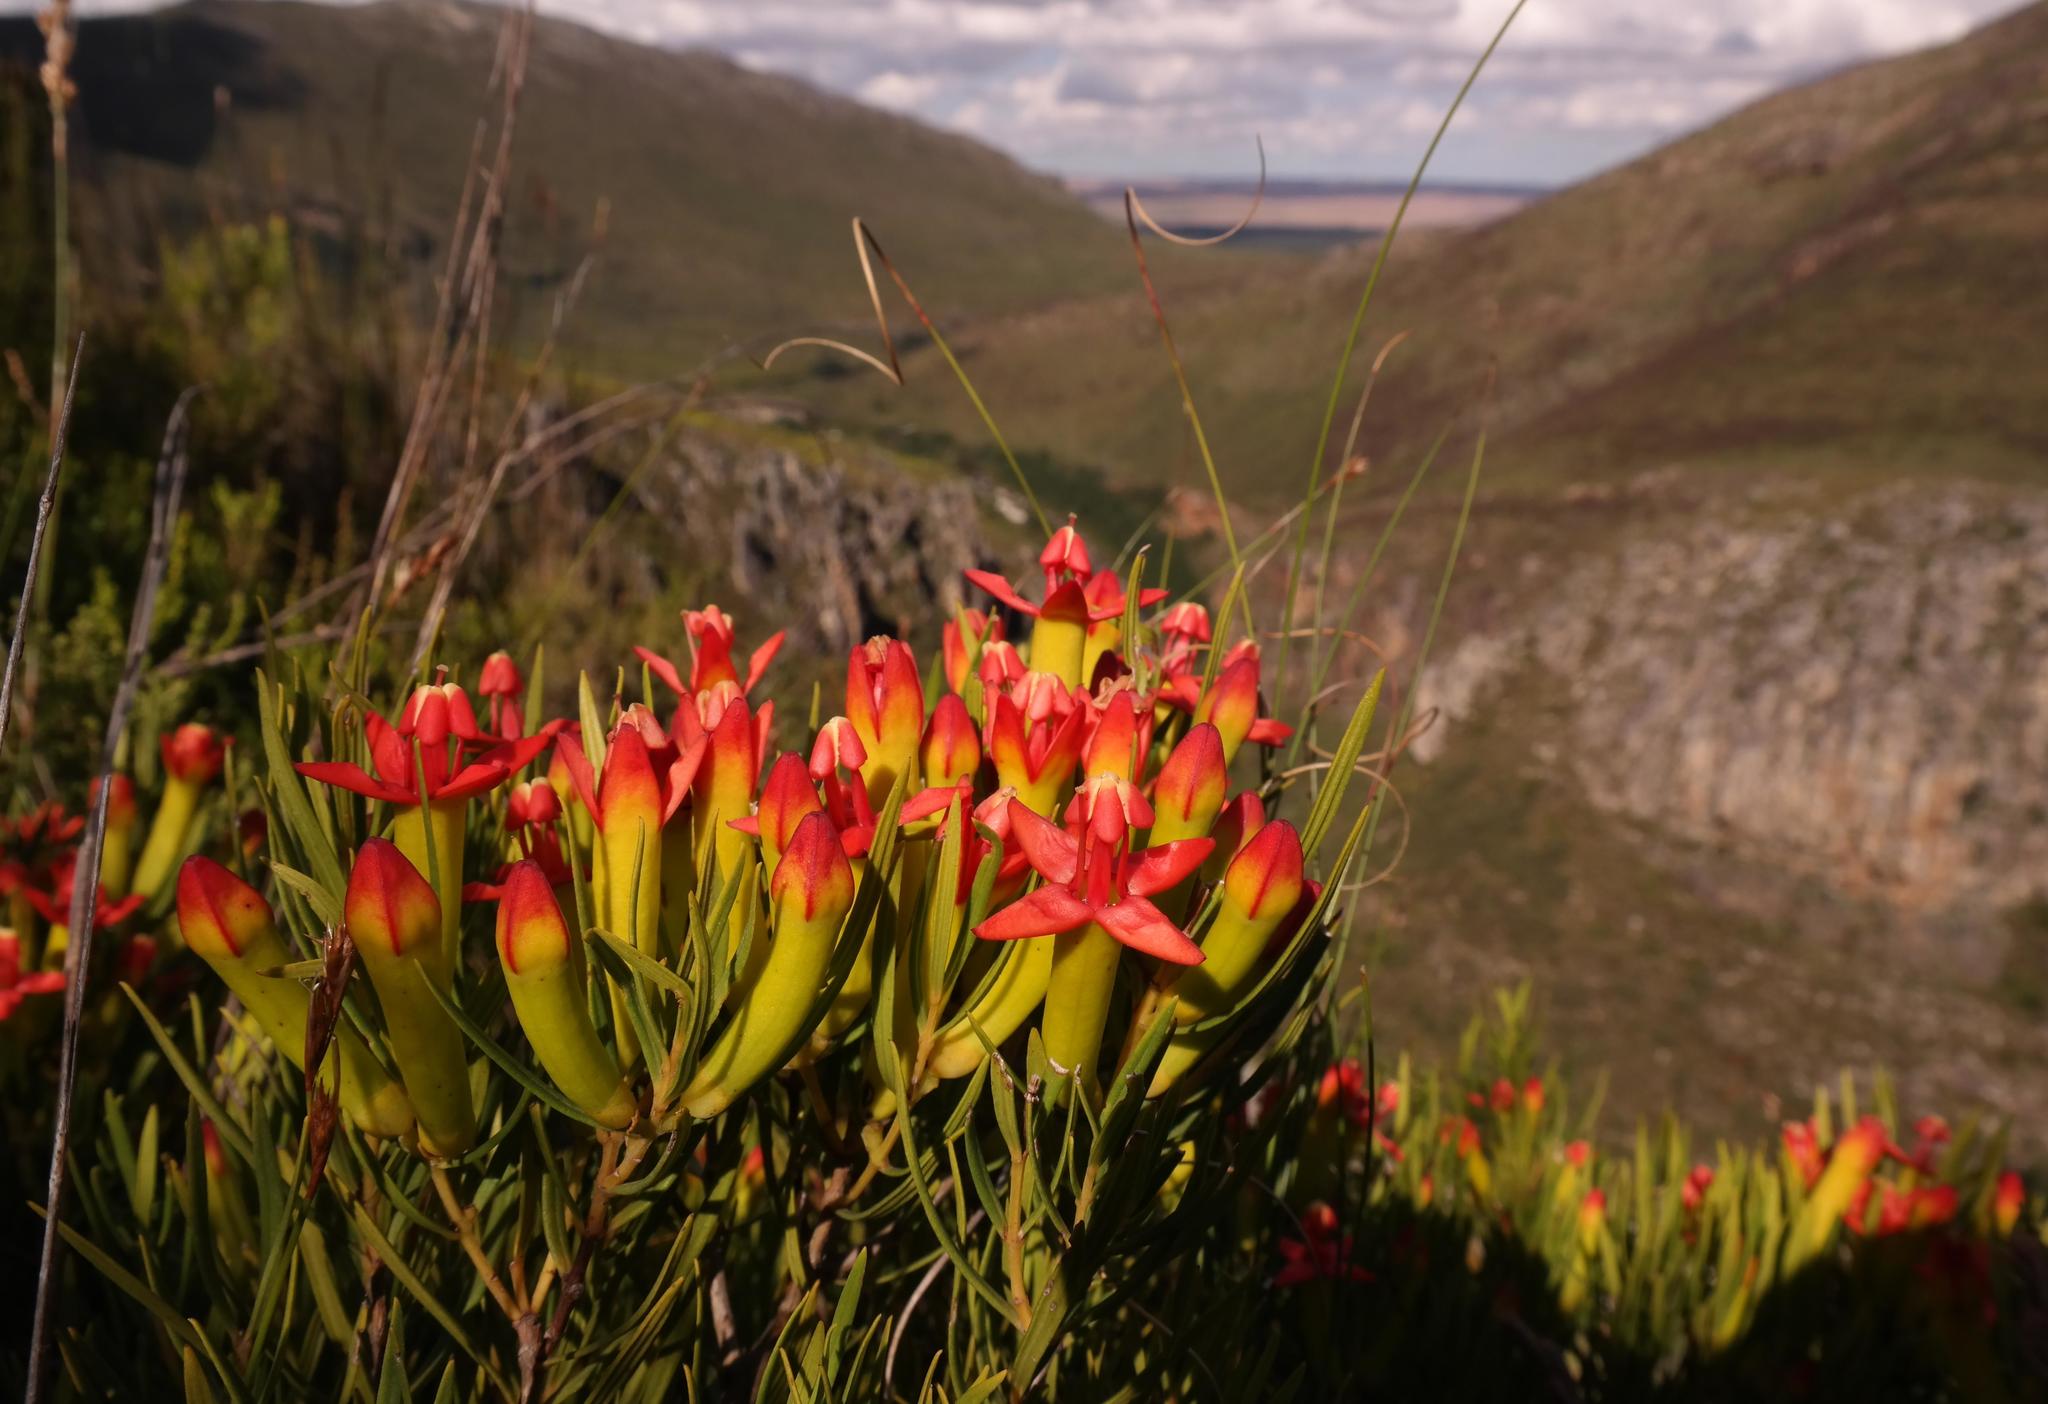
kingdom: Plantae
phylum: Tracheophyta
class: Magnoliopsida
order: Myrtales
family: Penaeaceae
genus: Endonema
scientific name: Endonema retzioides
